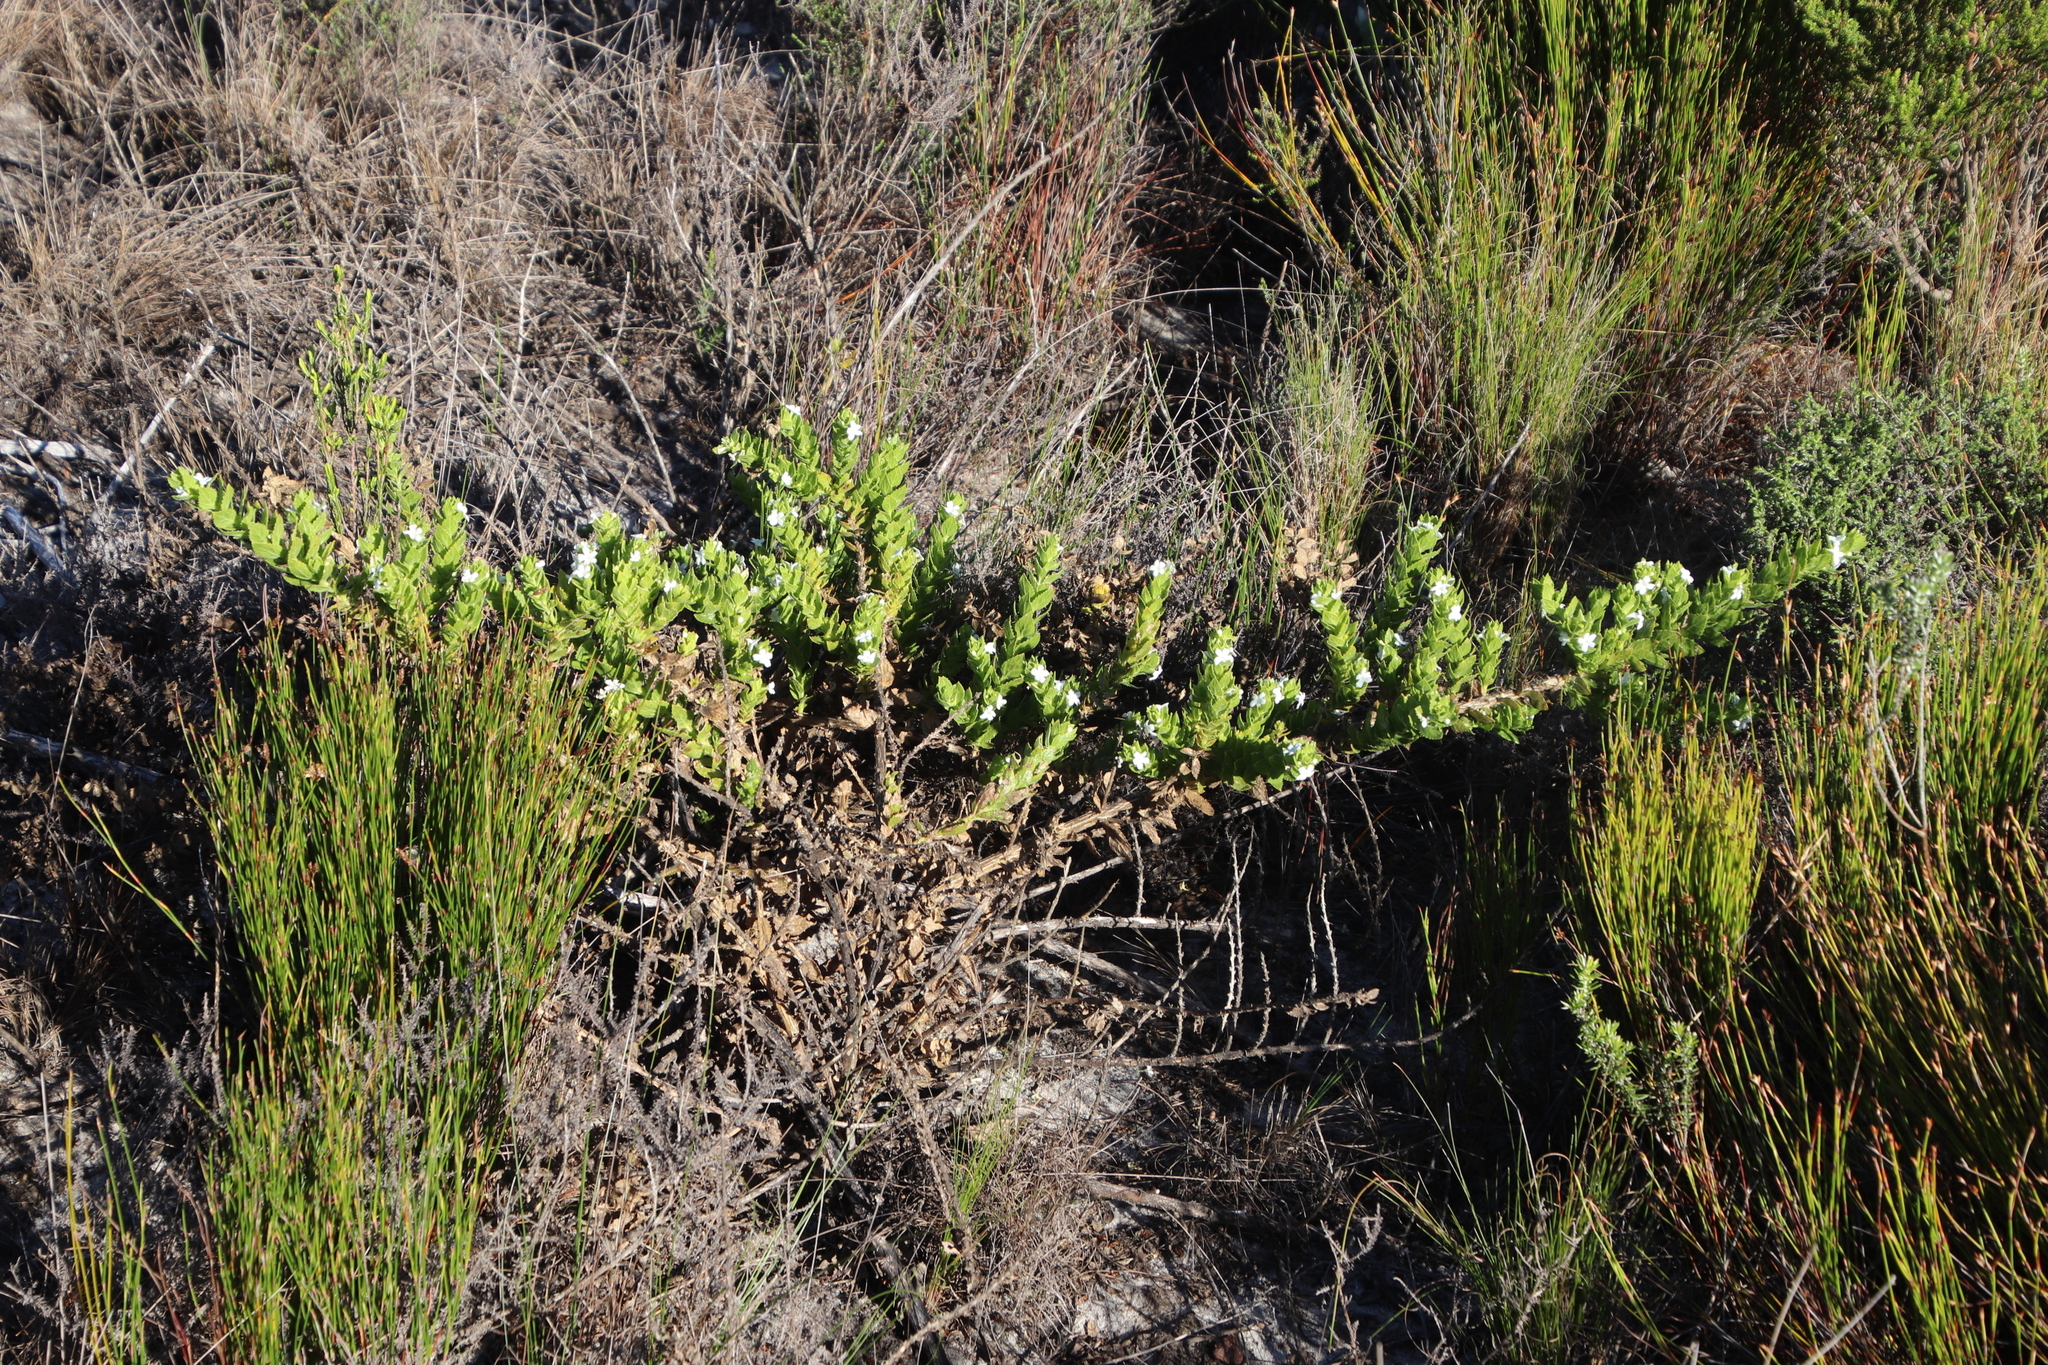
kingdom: Plantae
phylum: Tracheophyta
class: Magnoliopsida
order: Lamiales
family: Scrophulariaceae
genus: Oftia
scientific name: Oftia africana
